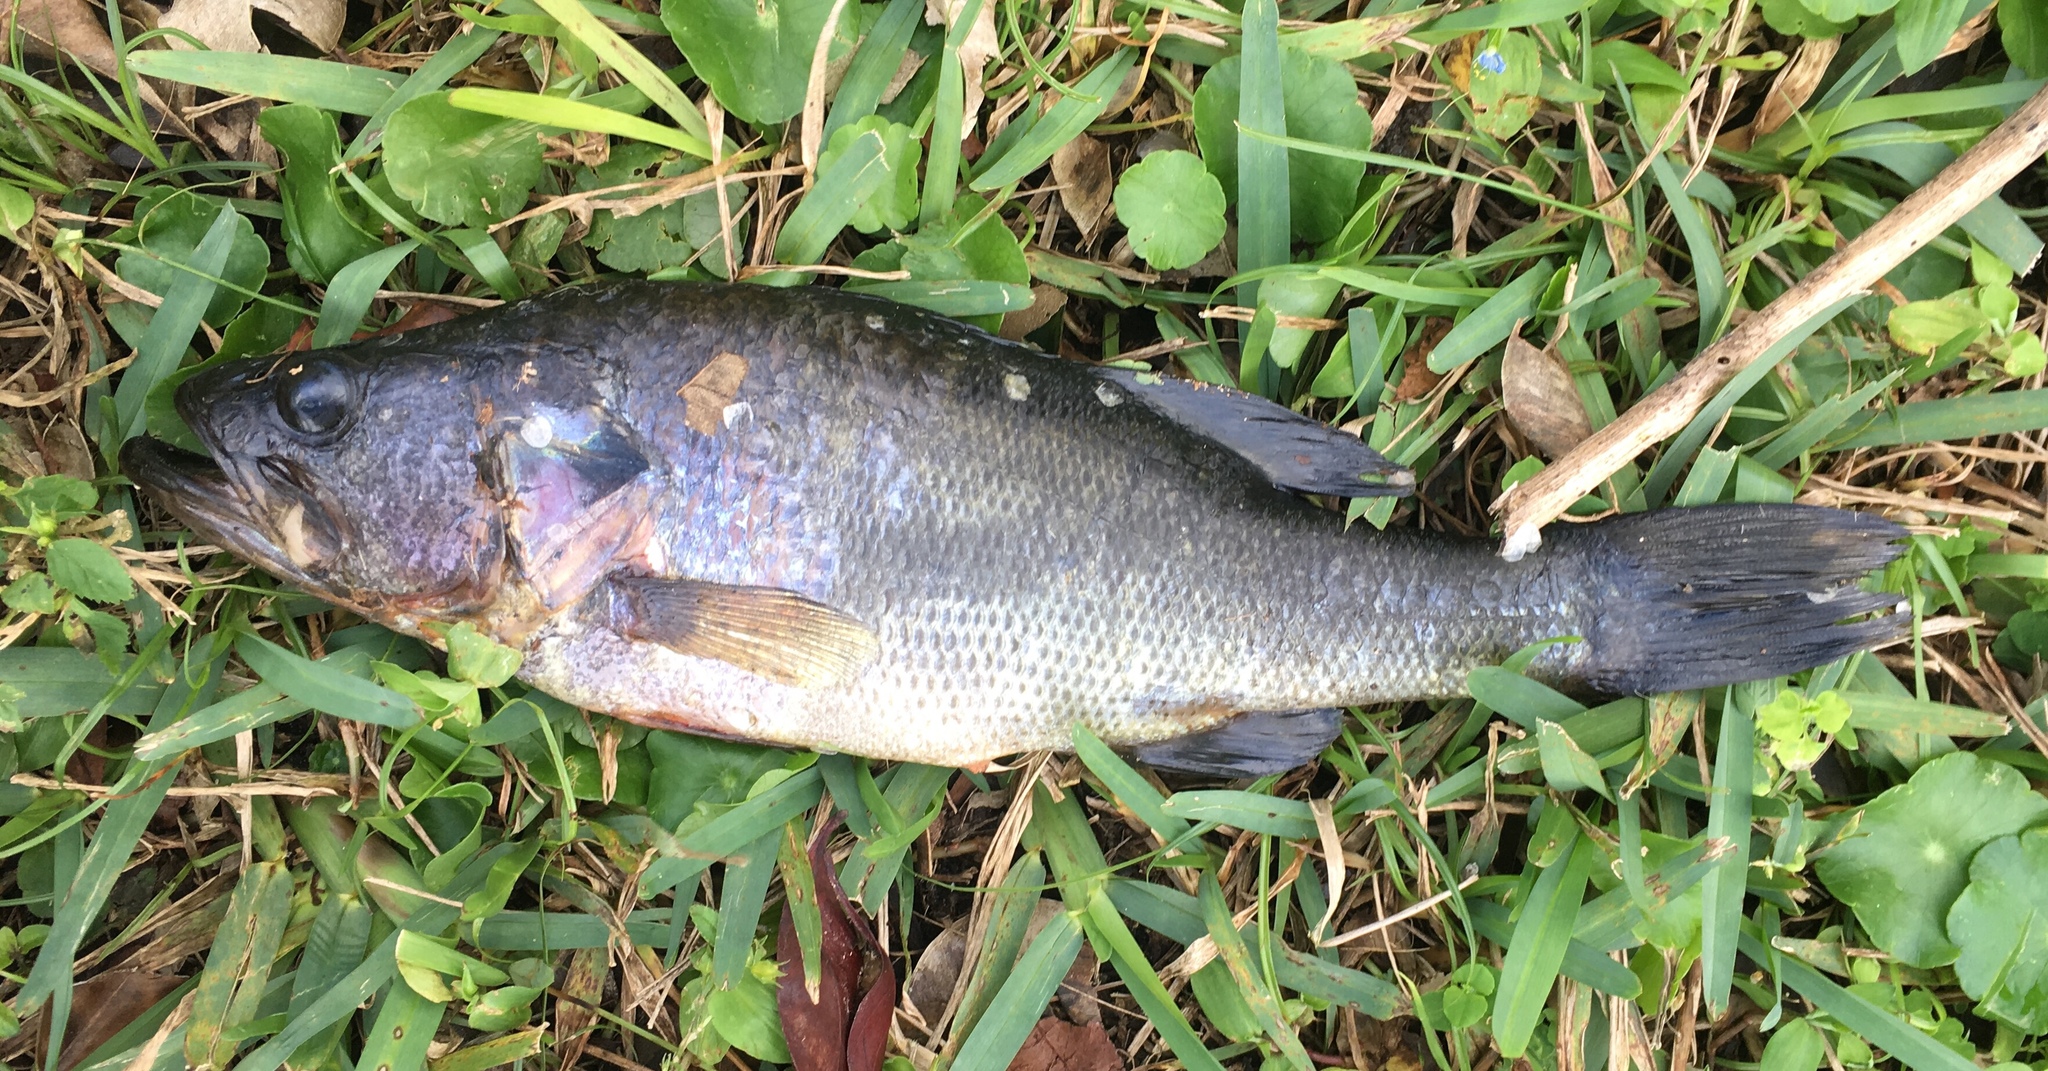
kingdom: Animalia
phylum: Chordata
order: Perciformes
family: Centrarchidae
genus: Micropterus
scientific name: Micropterus salmoides
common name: Largemouth bass
